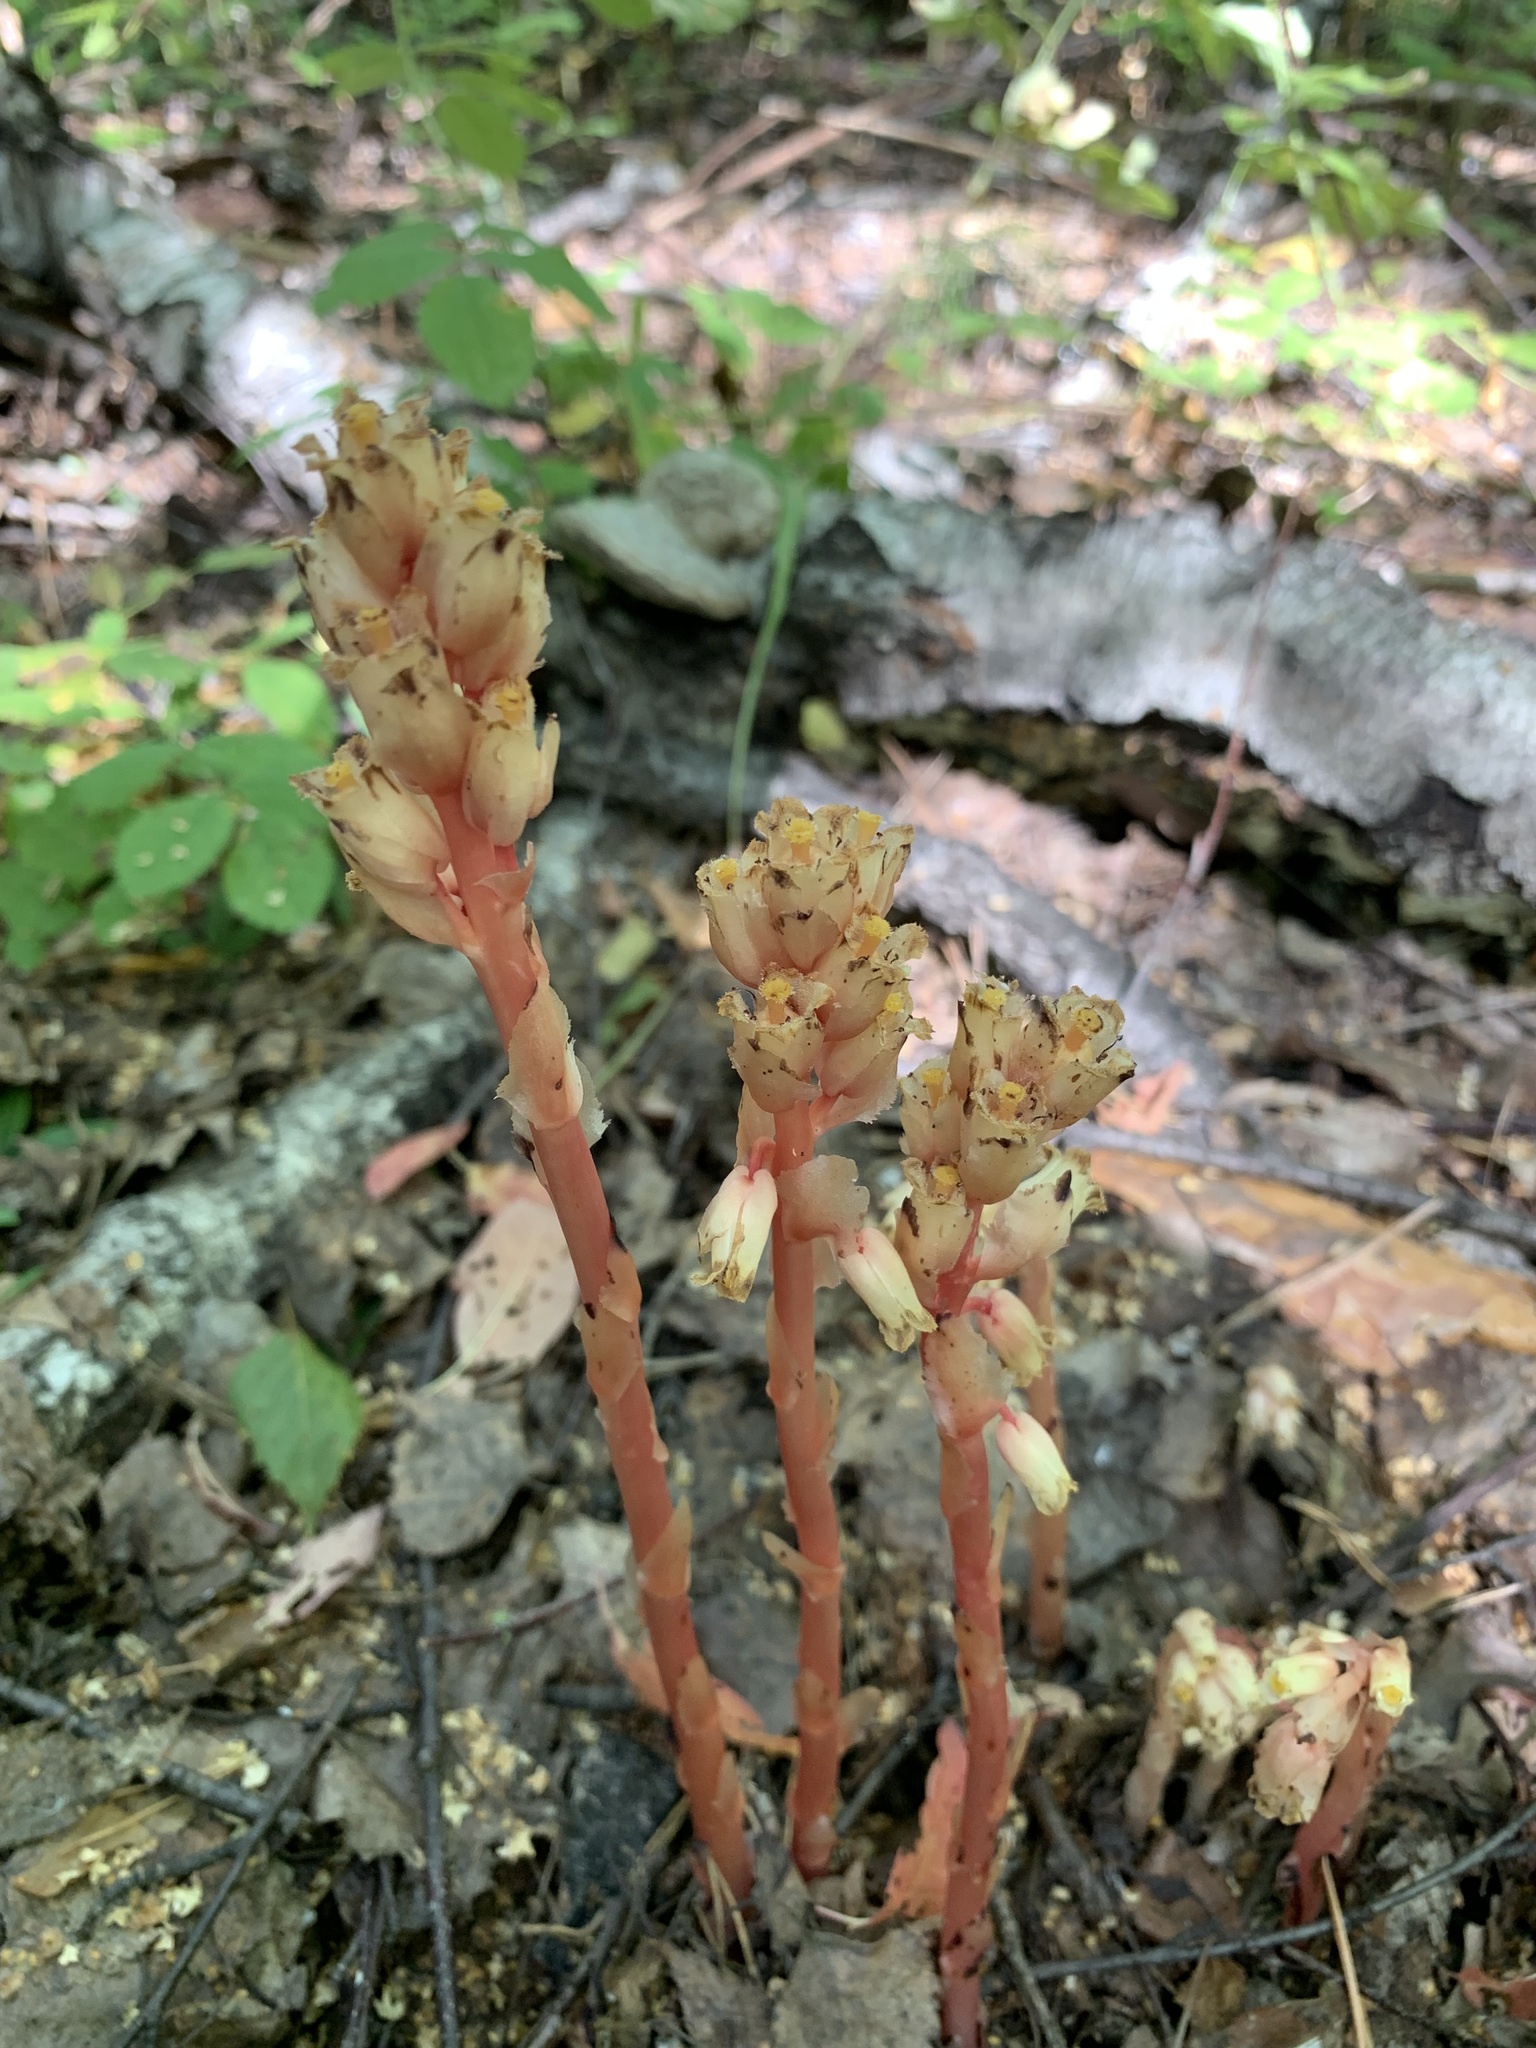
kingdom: Plantae
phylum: Tracheophyta
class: Magnoliopsida
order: Ericales
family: Ericaceae
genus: Hypopitys
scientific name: Hypopitys monotropa
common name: Yellow bird's-nest
